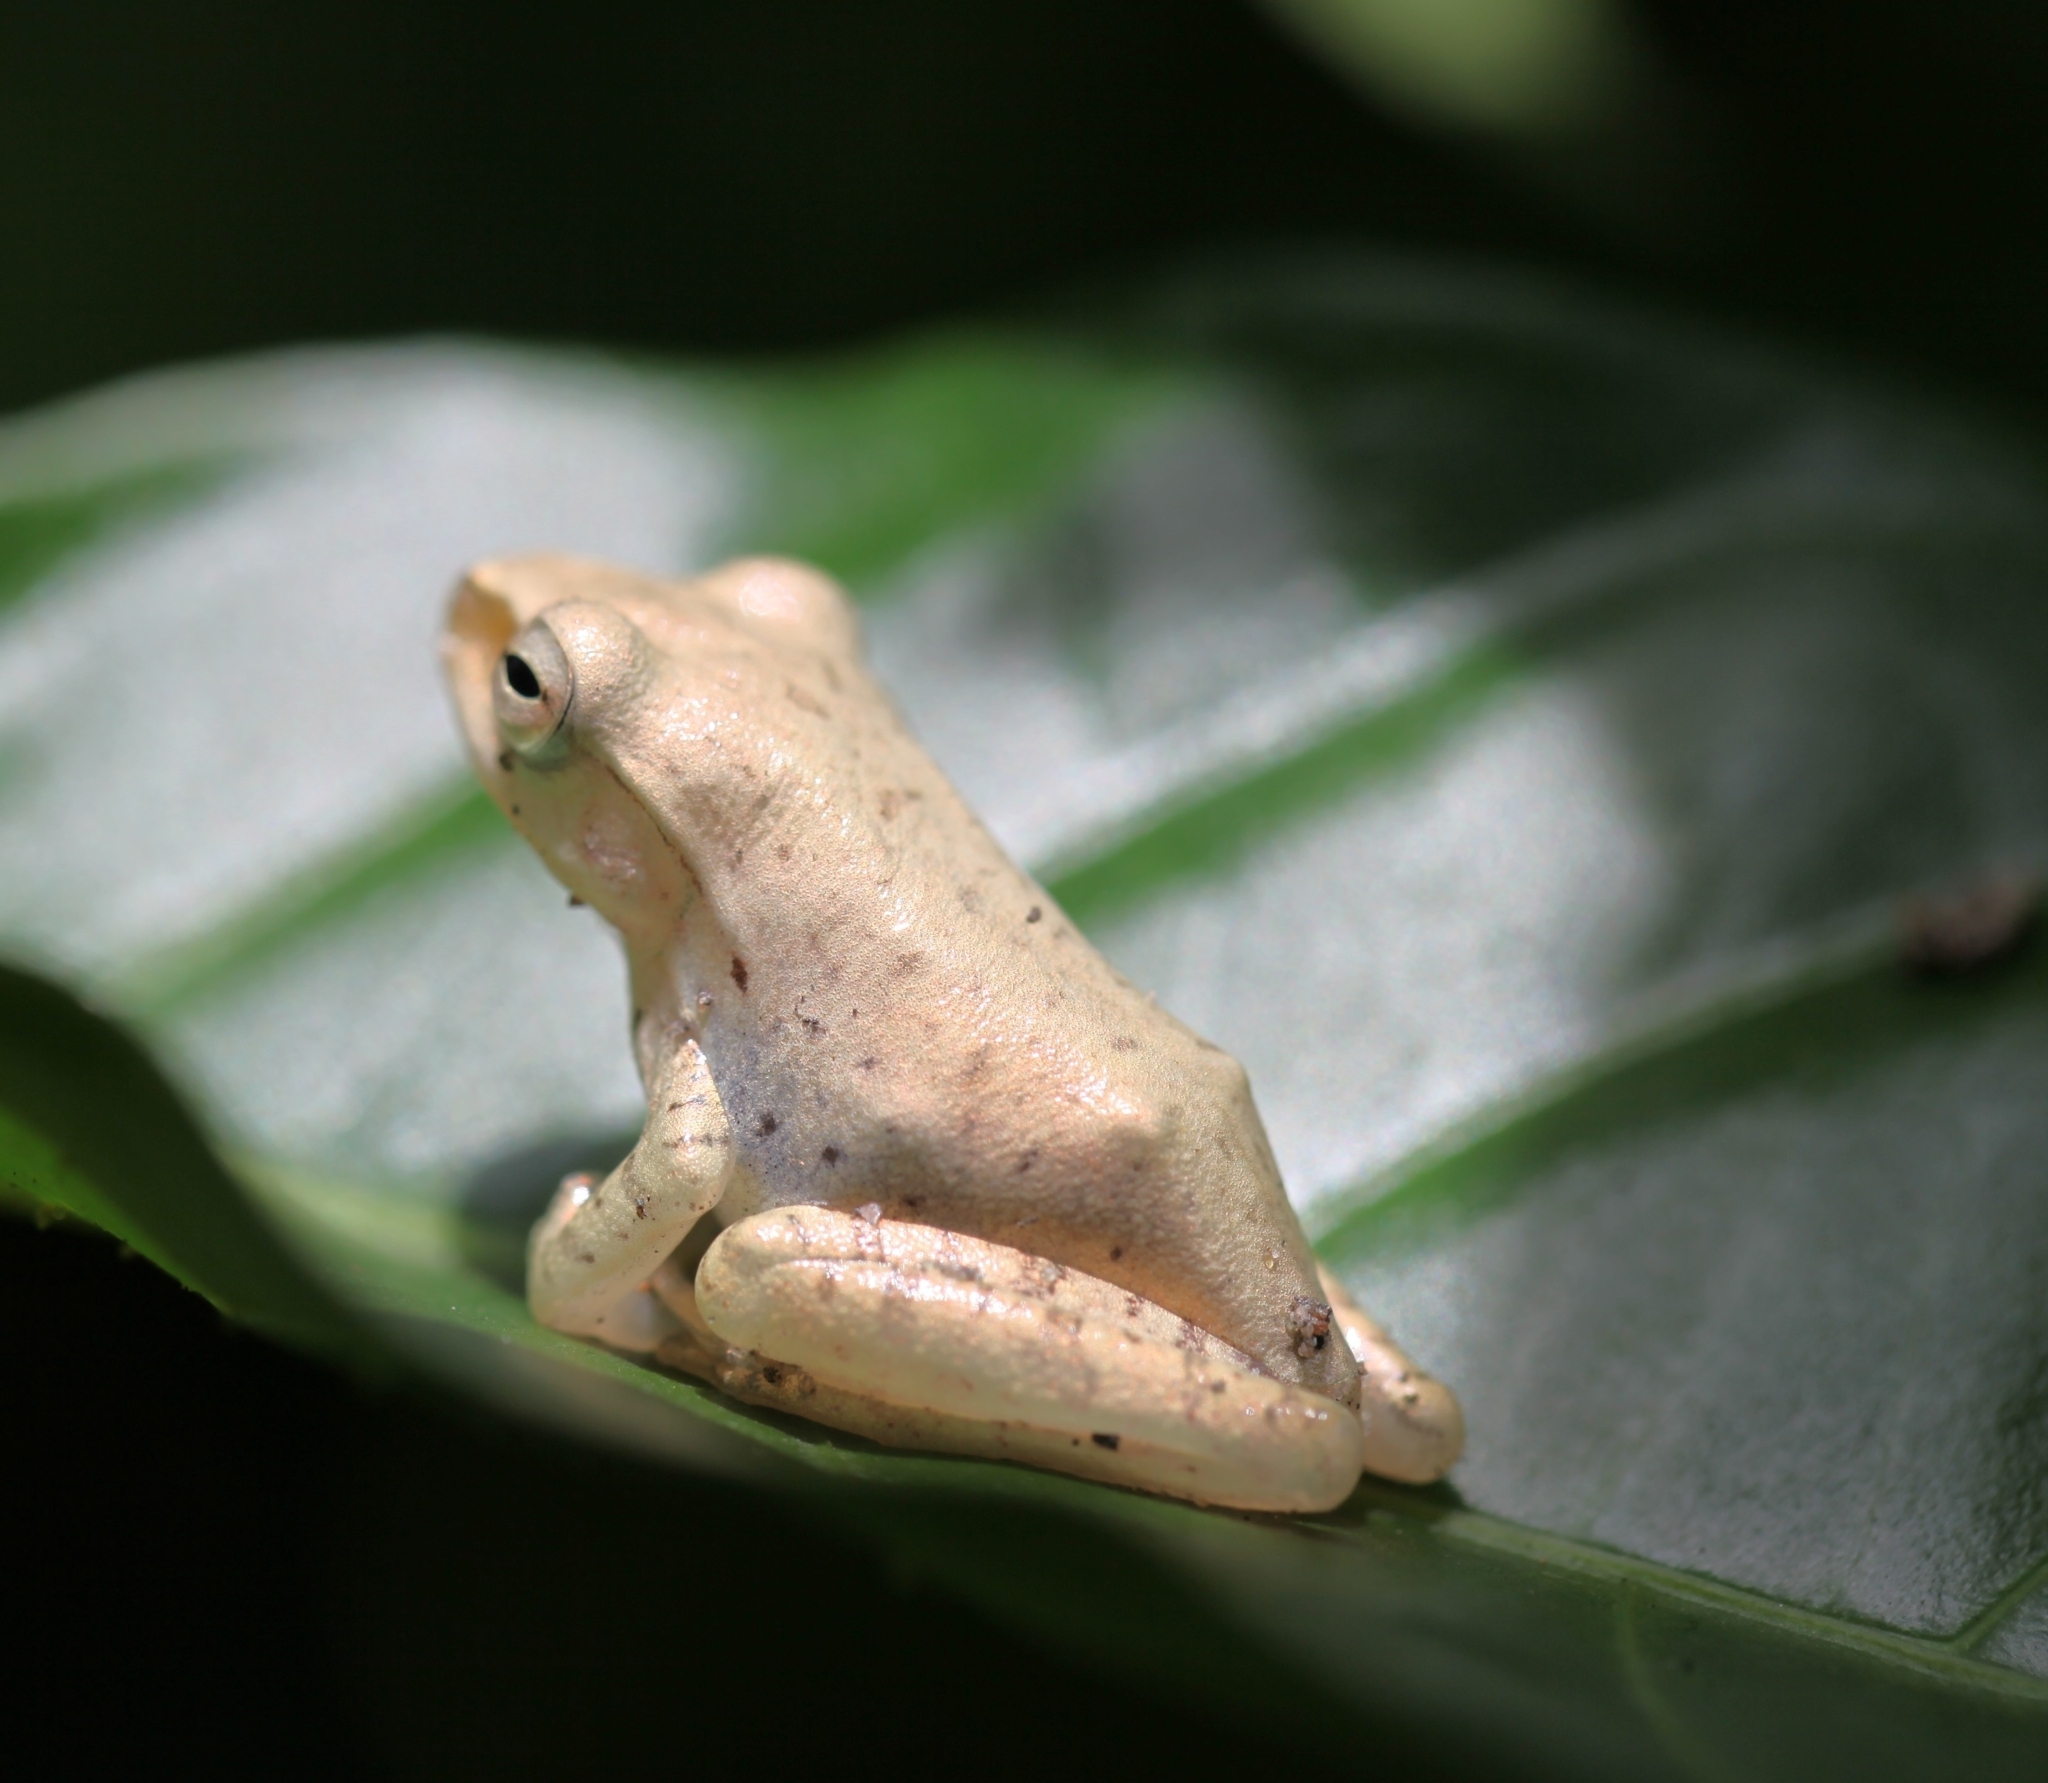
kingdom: Animalia
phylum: Chordata
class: Amphibia
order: Anura
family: Rhacophoridae
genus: Polypedates
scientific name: Polypedates megacephalus
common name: Hong kong whipping frog
